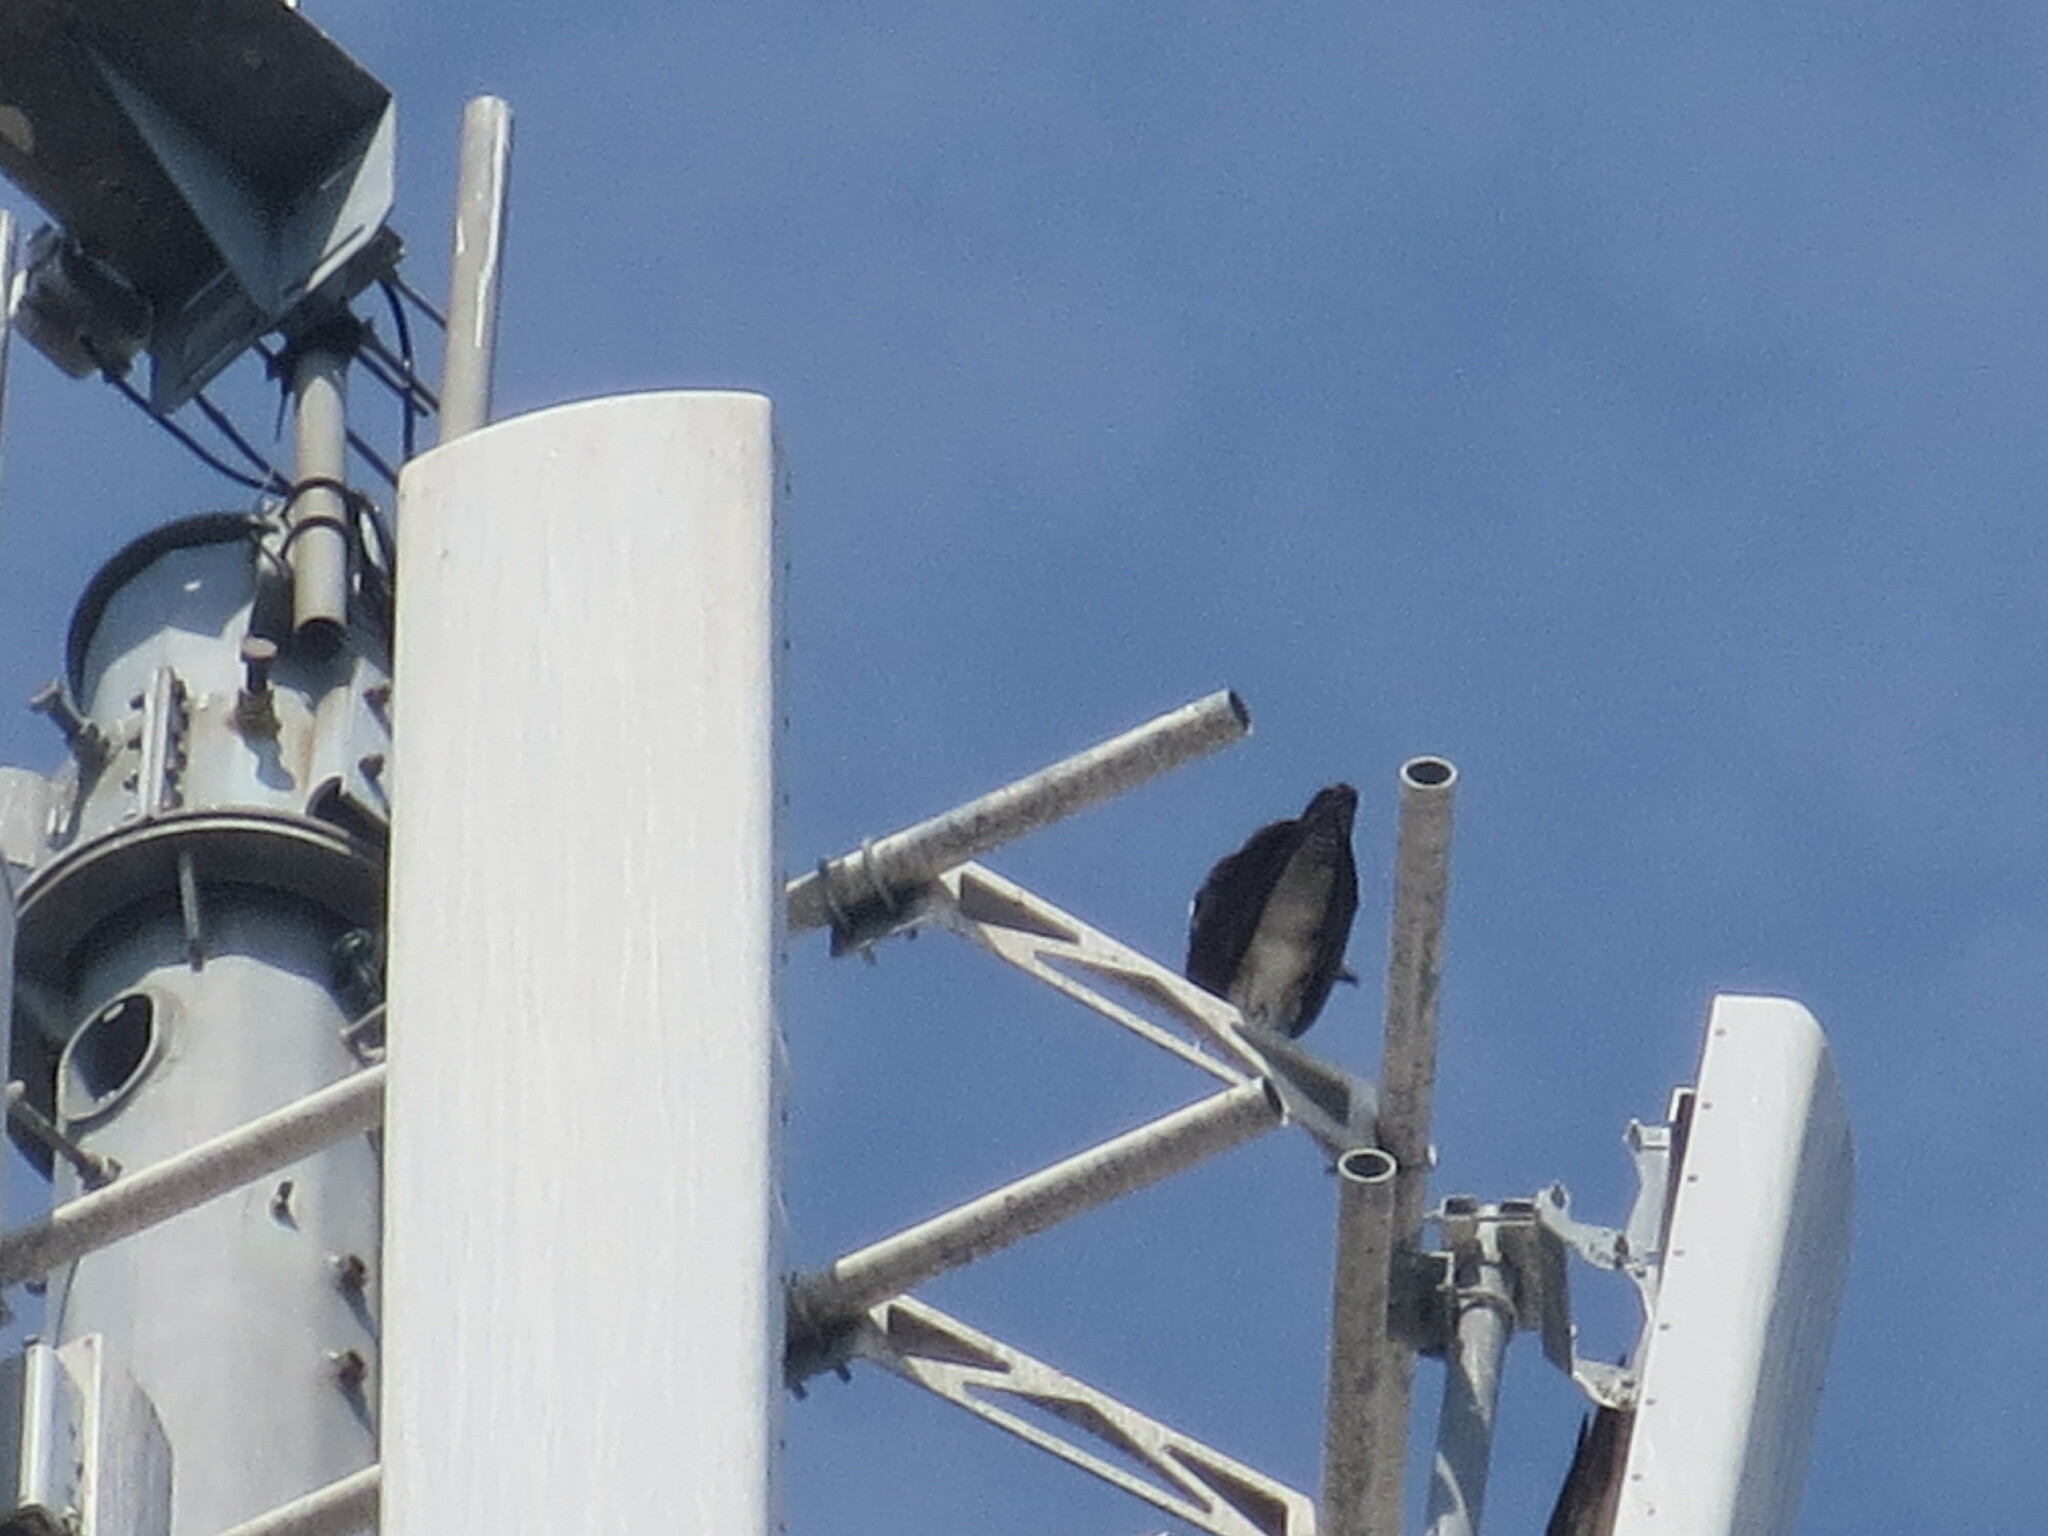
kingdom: Animalia
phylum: Chordata
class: Aves
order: Accipitriformes
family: Pandionidae
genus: Pandion
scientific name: Pandion haliaetus
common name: Osprey
